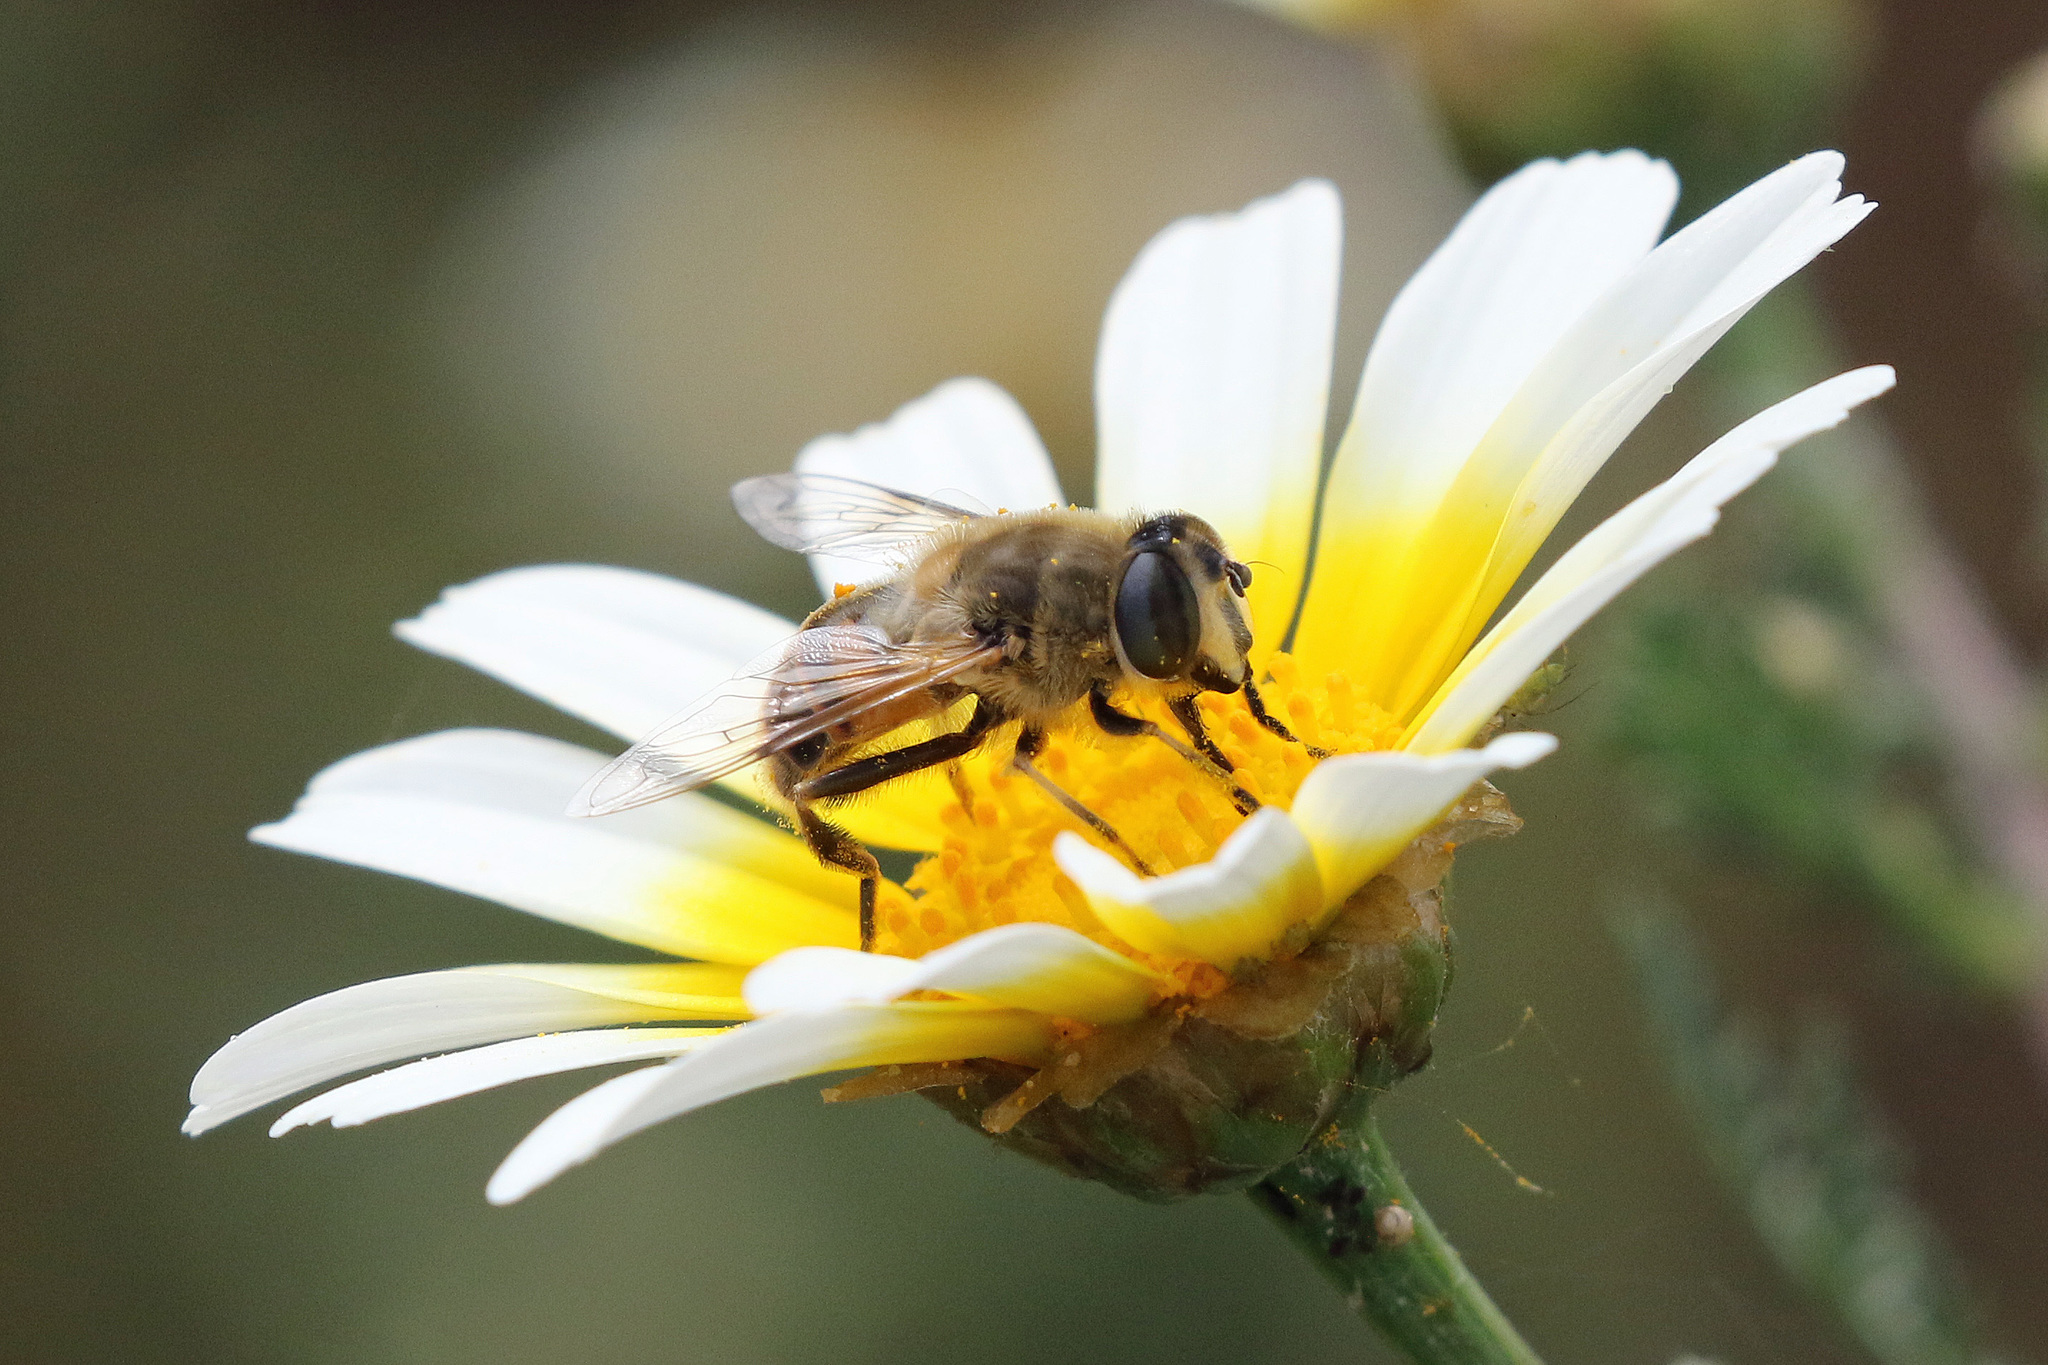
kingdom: Animalia
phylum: Arthropoda
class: Insecta
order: Diptera
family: Syrphidae
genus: Eristalis
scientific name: Eristalis tenax
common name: Drone fly
